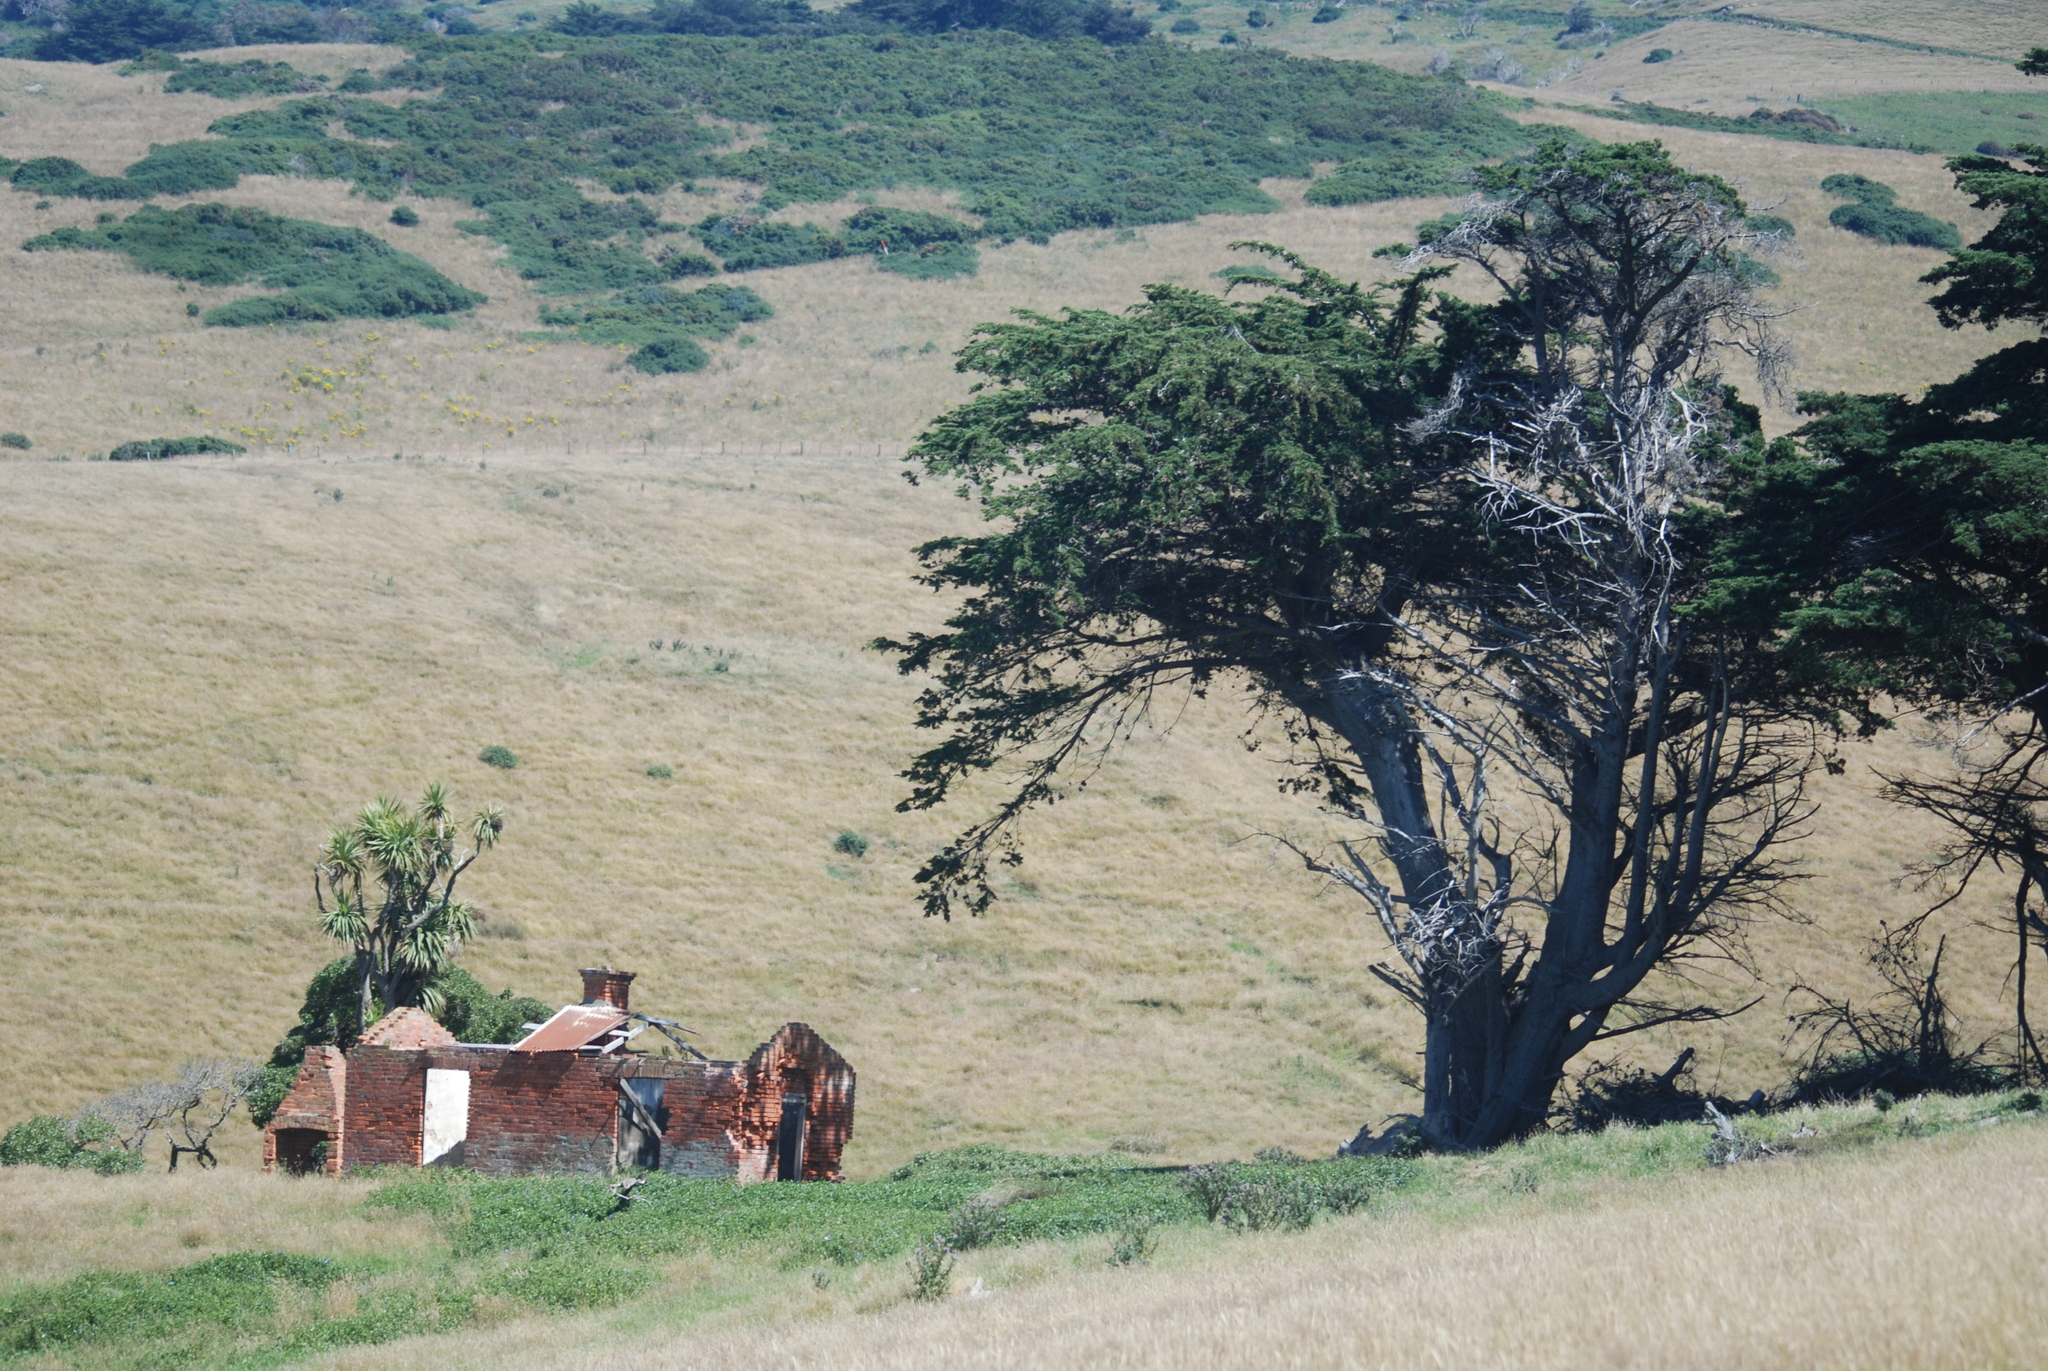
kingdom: Plantae
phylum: Tracheophyta
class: Pinopsida
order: Pinales
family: Cupressaceae
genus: Cupressus
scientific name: Cupressus macrocarpa
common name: Monterey cypress
